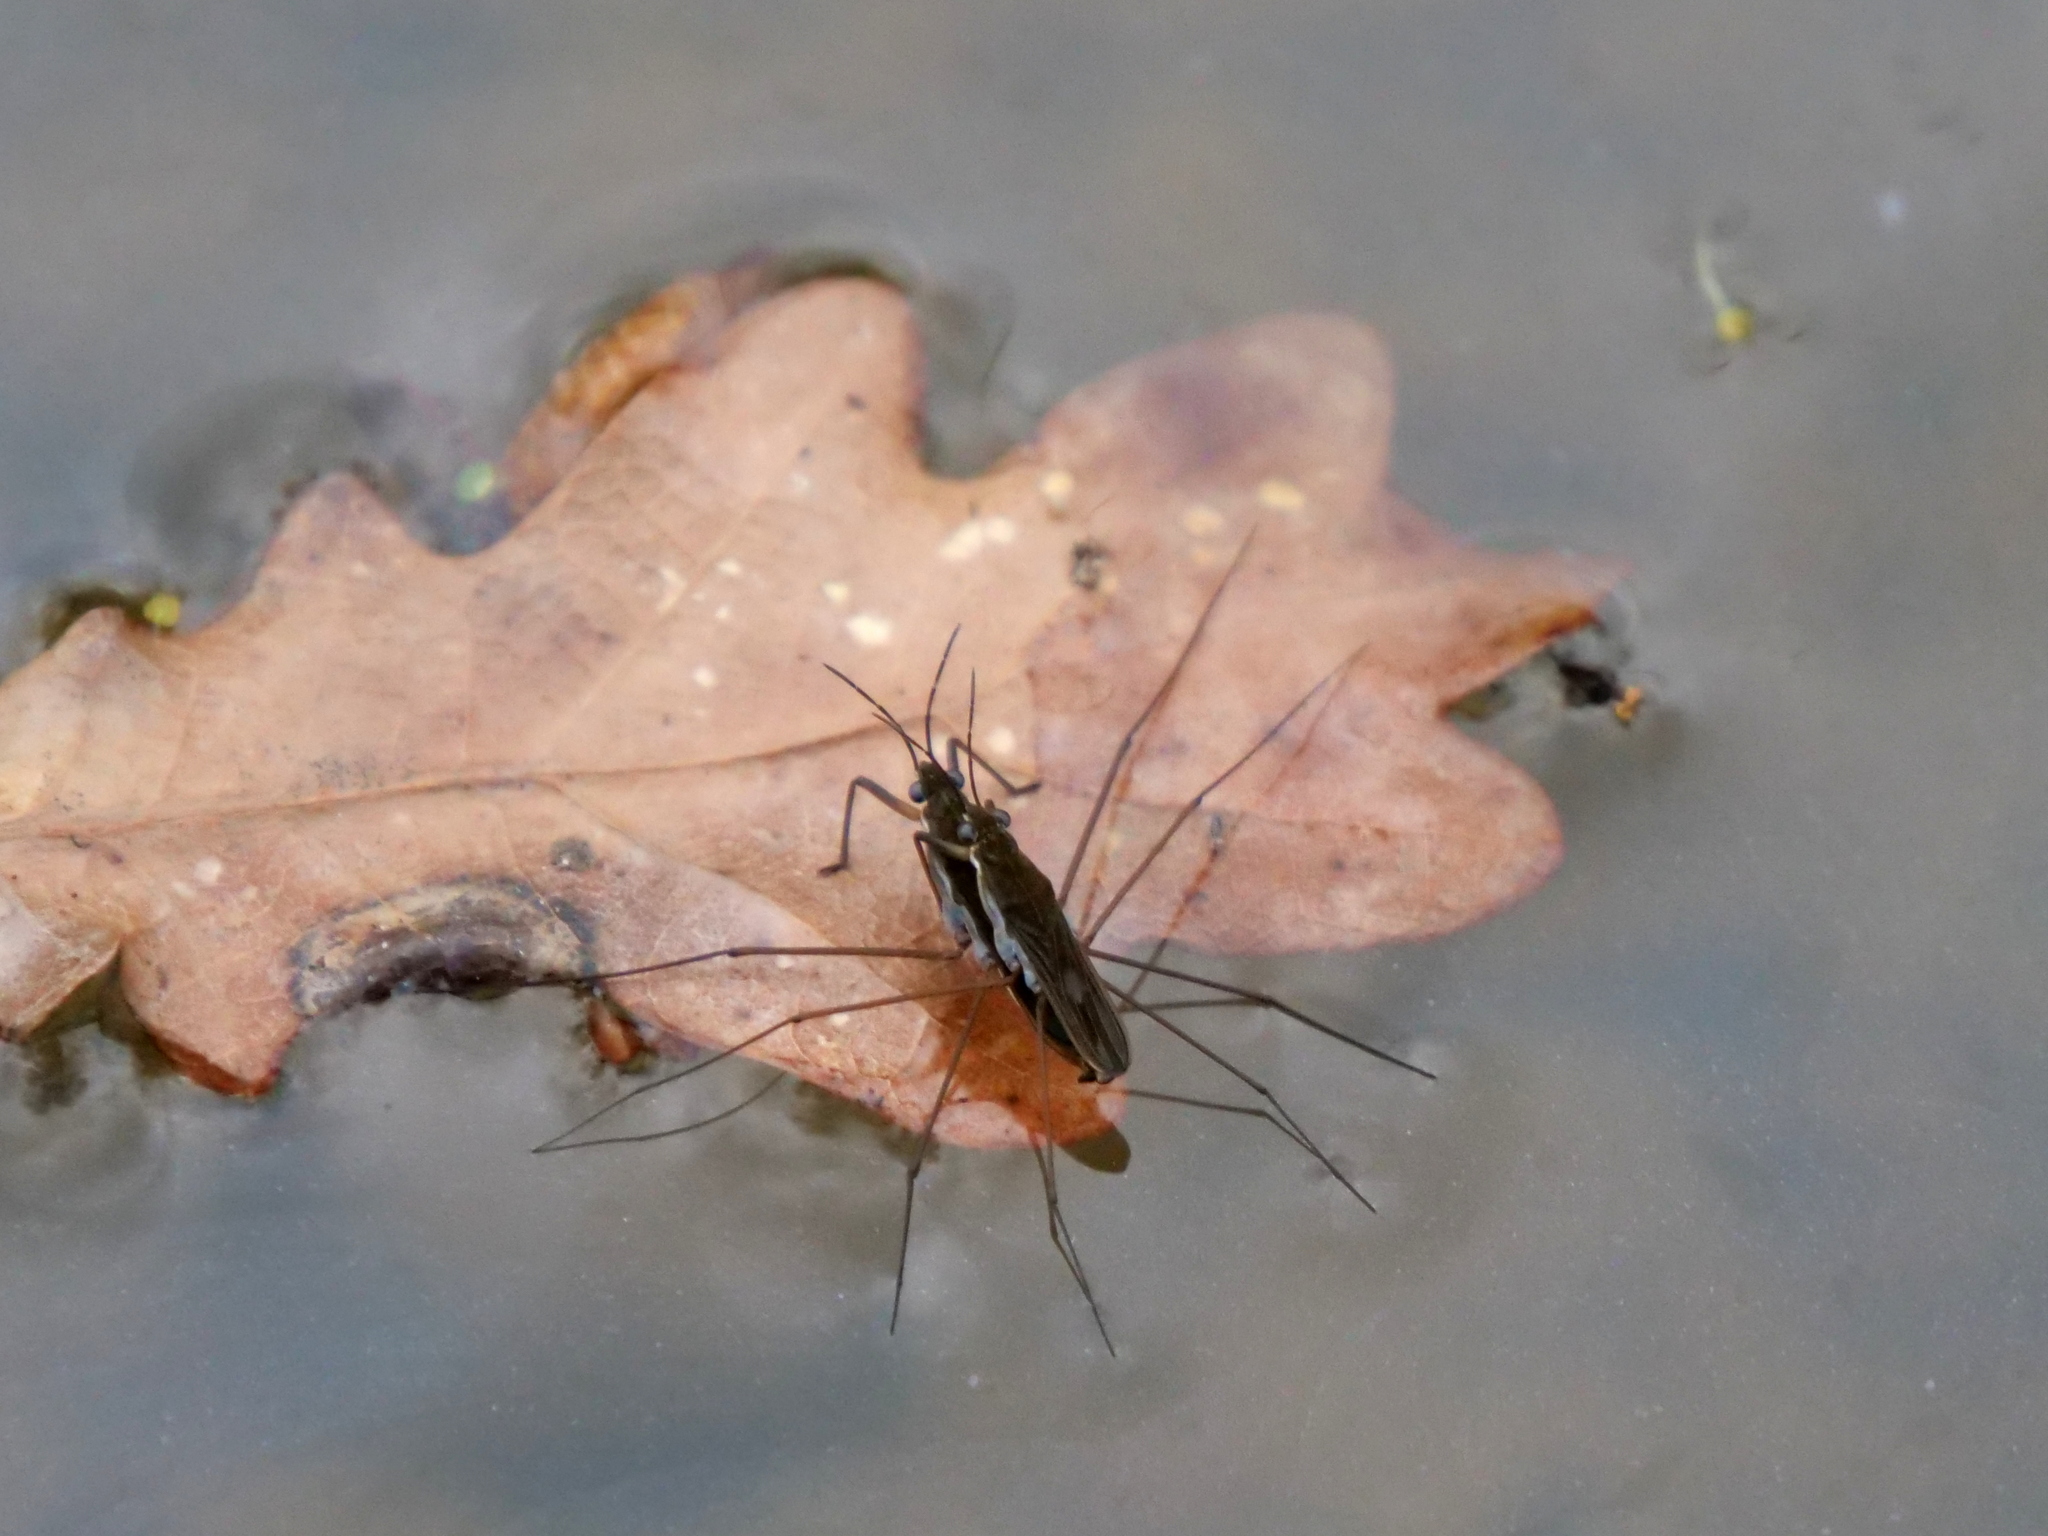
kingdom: Animalia
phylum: Arthropoda
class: Insecta
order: Hemiptera
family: Gerridae
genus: Gerris
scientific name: Gerris
